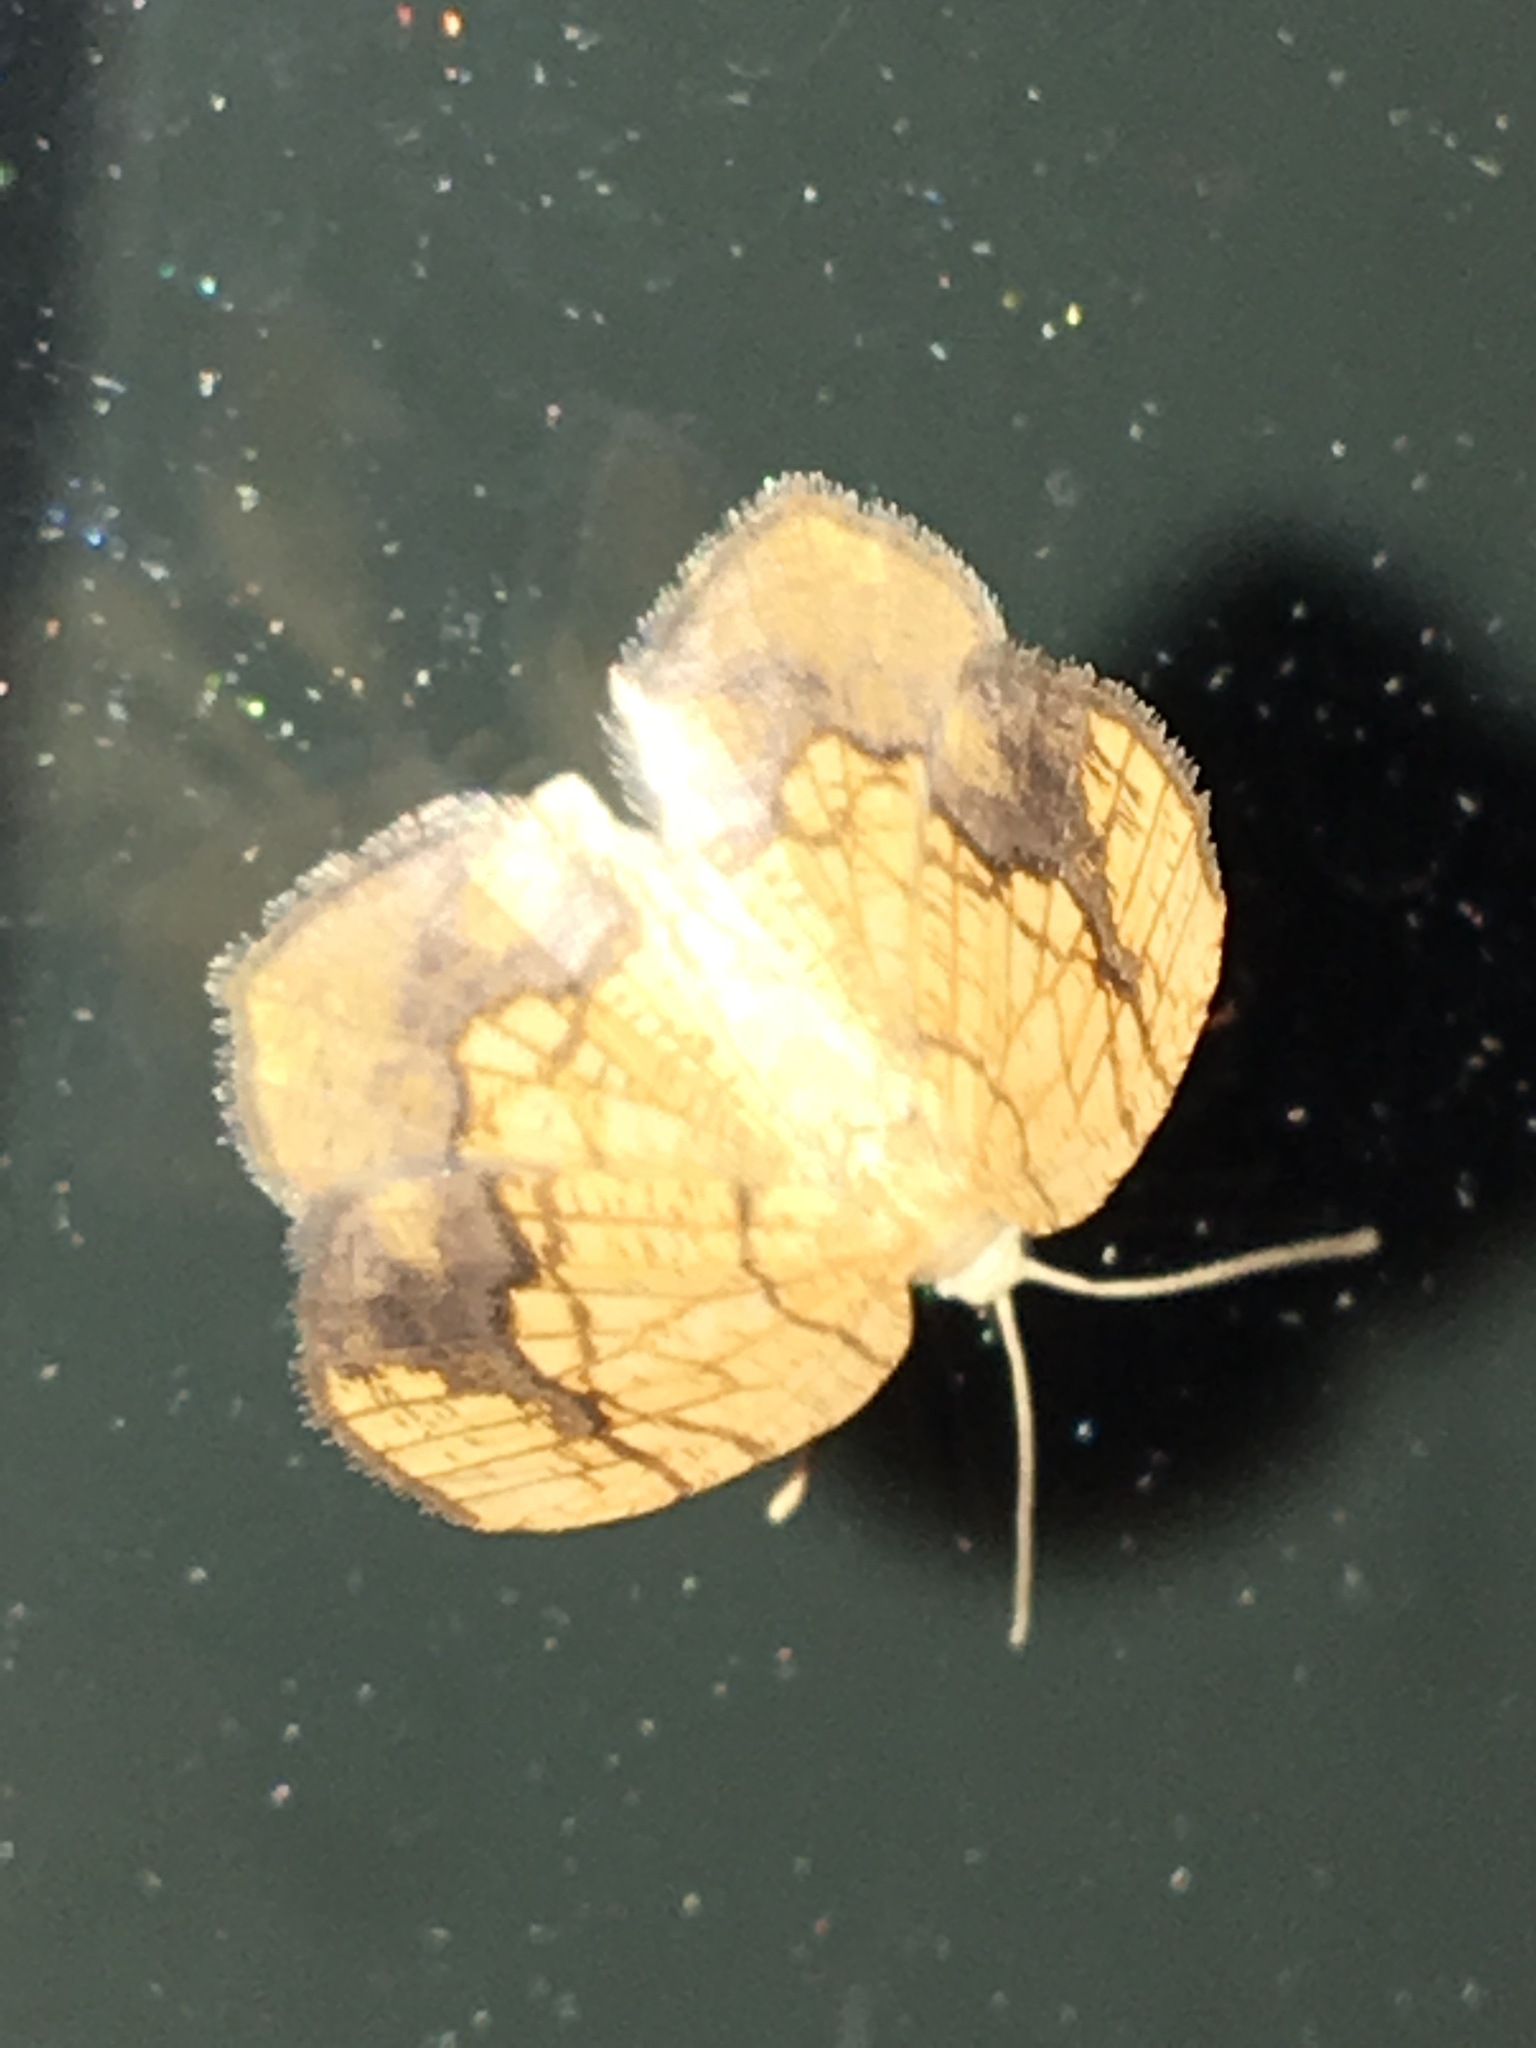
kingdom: Animalia
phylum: Arthropoda
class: Insecta
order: Lepidoptera
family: Geometridae
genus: Nematocampa
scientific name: Nematocampa resistaria
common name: Horned spanworm moth
